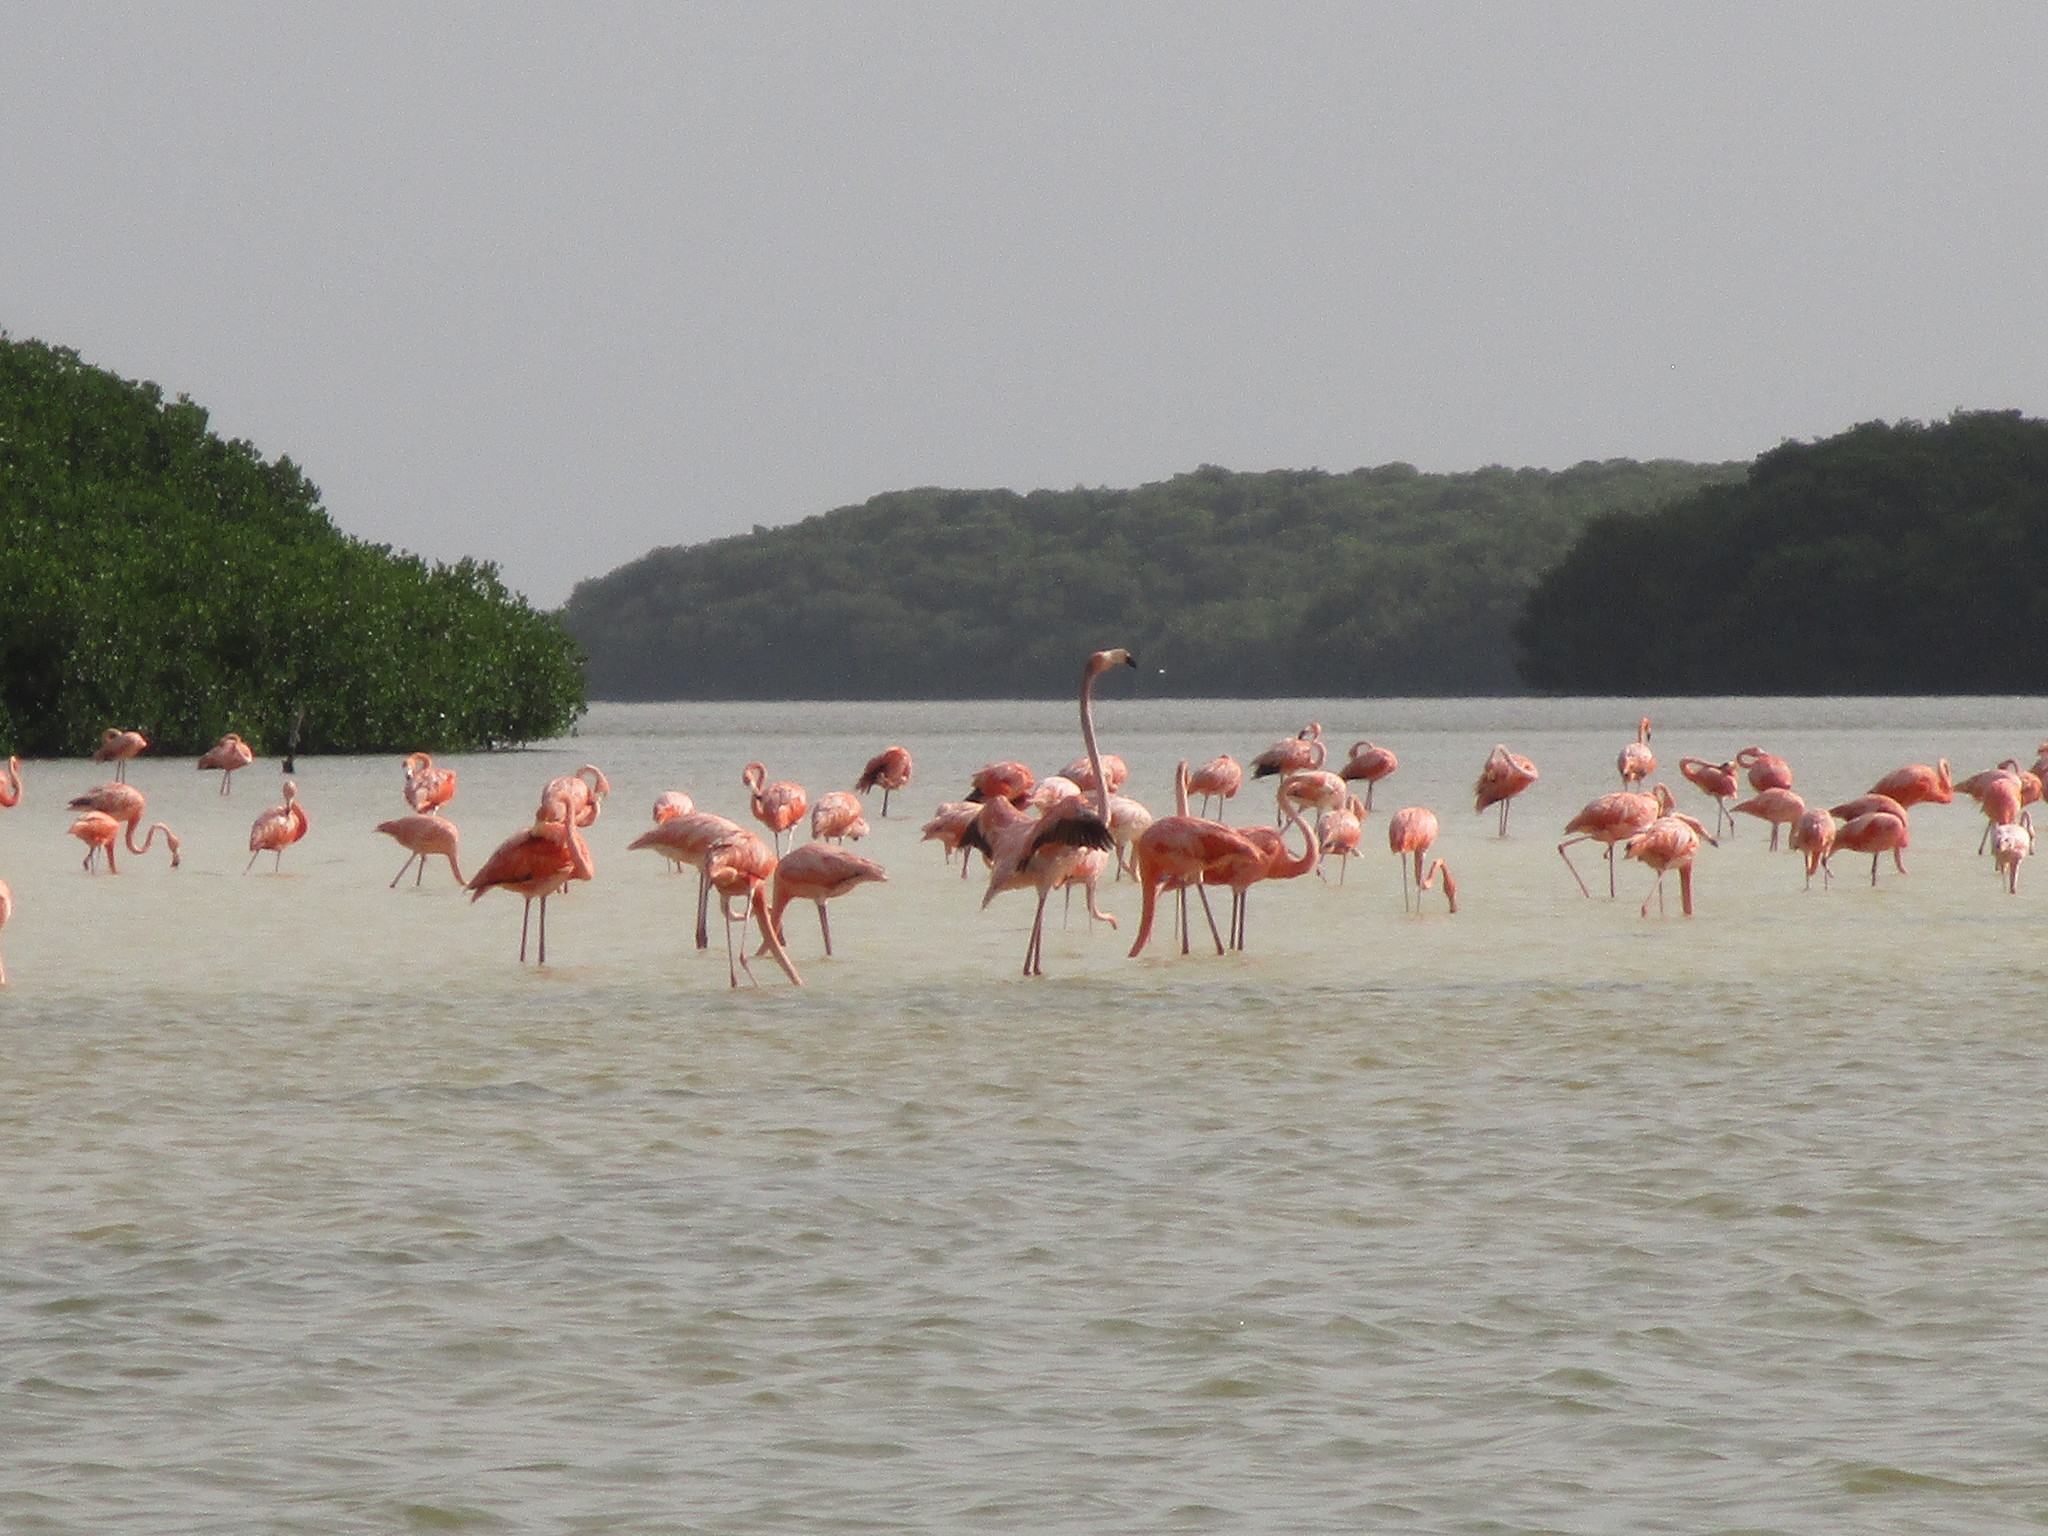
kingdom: Animalia
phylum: Chordata
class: Aves
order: Phoenicopteriformes
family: Phoenicopteridae
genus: Phoenicopterus
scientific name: Phoenicopterus ruber
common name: American flamingo
